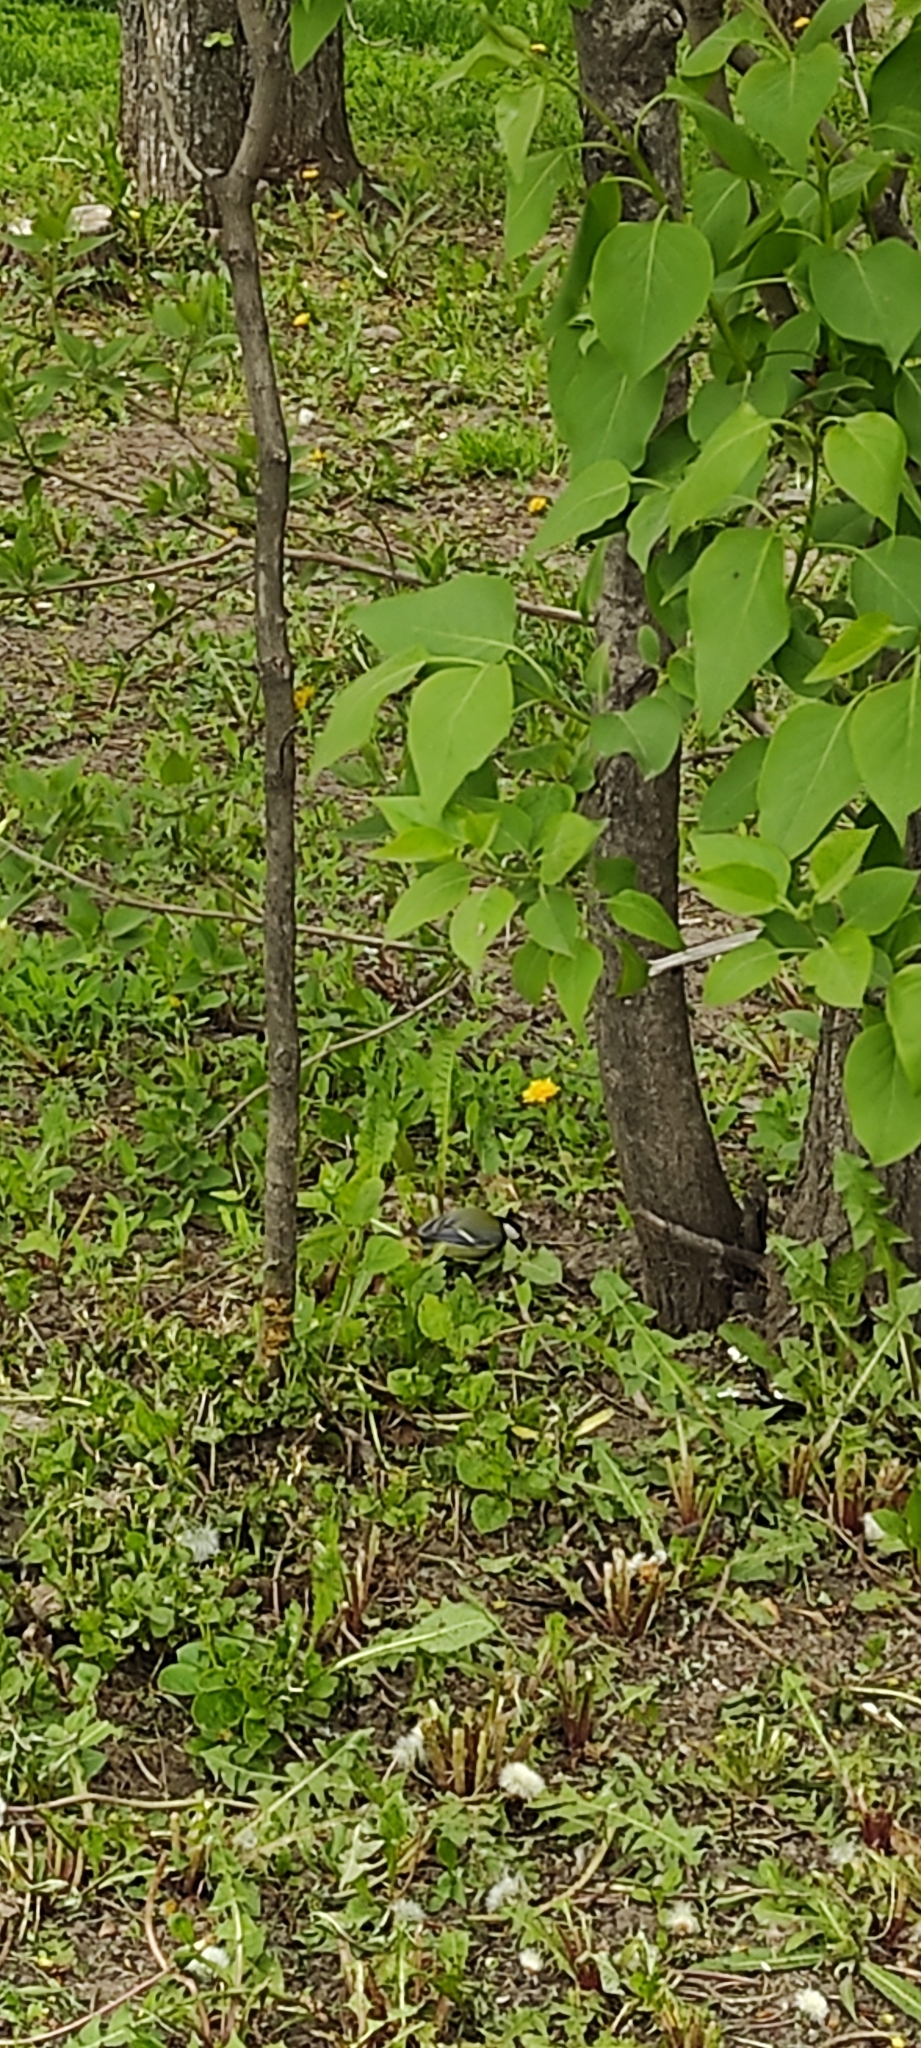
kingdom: Animalia
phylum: Chordata
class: Aves
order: Passeriformes
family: Paridae
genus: Parus
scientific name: Parus major
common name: Great tit
